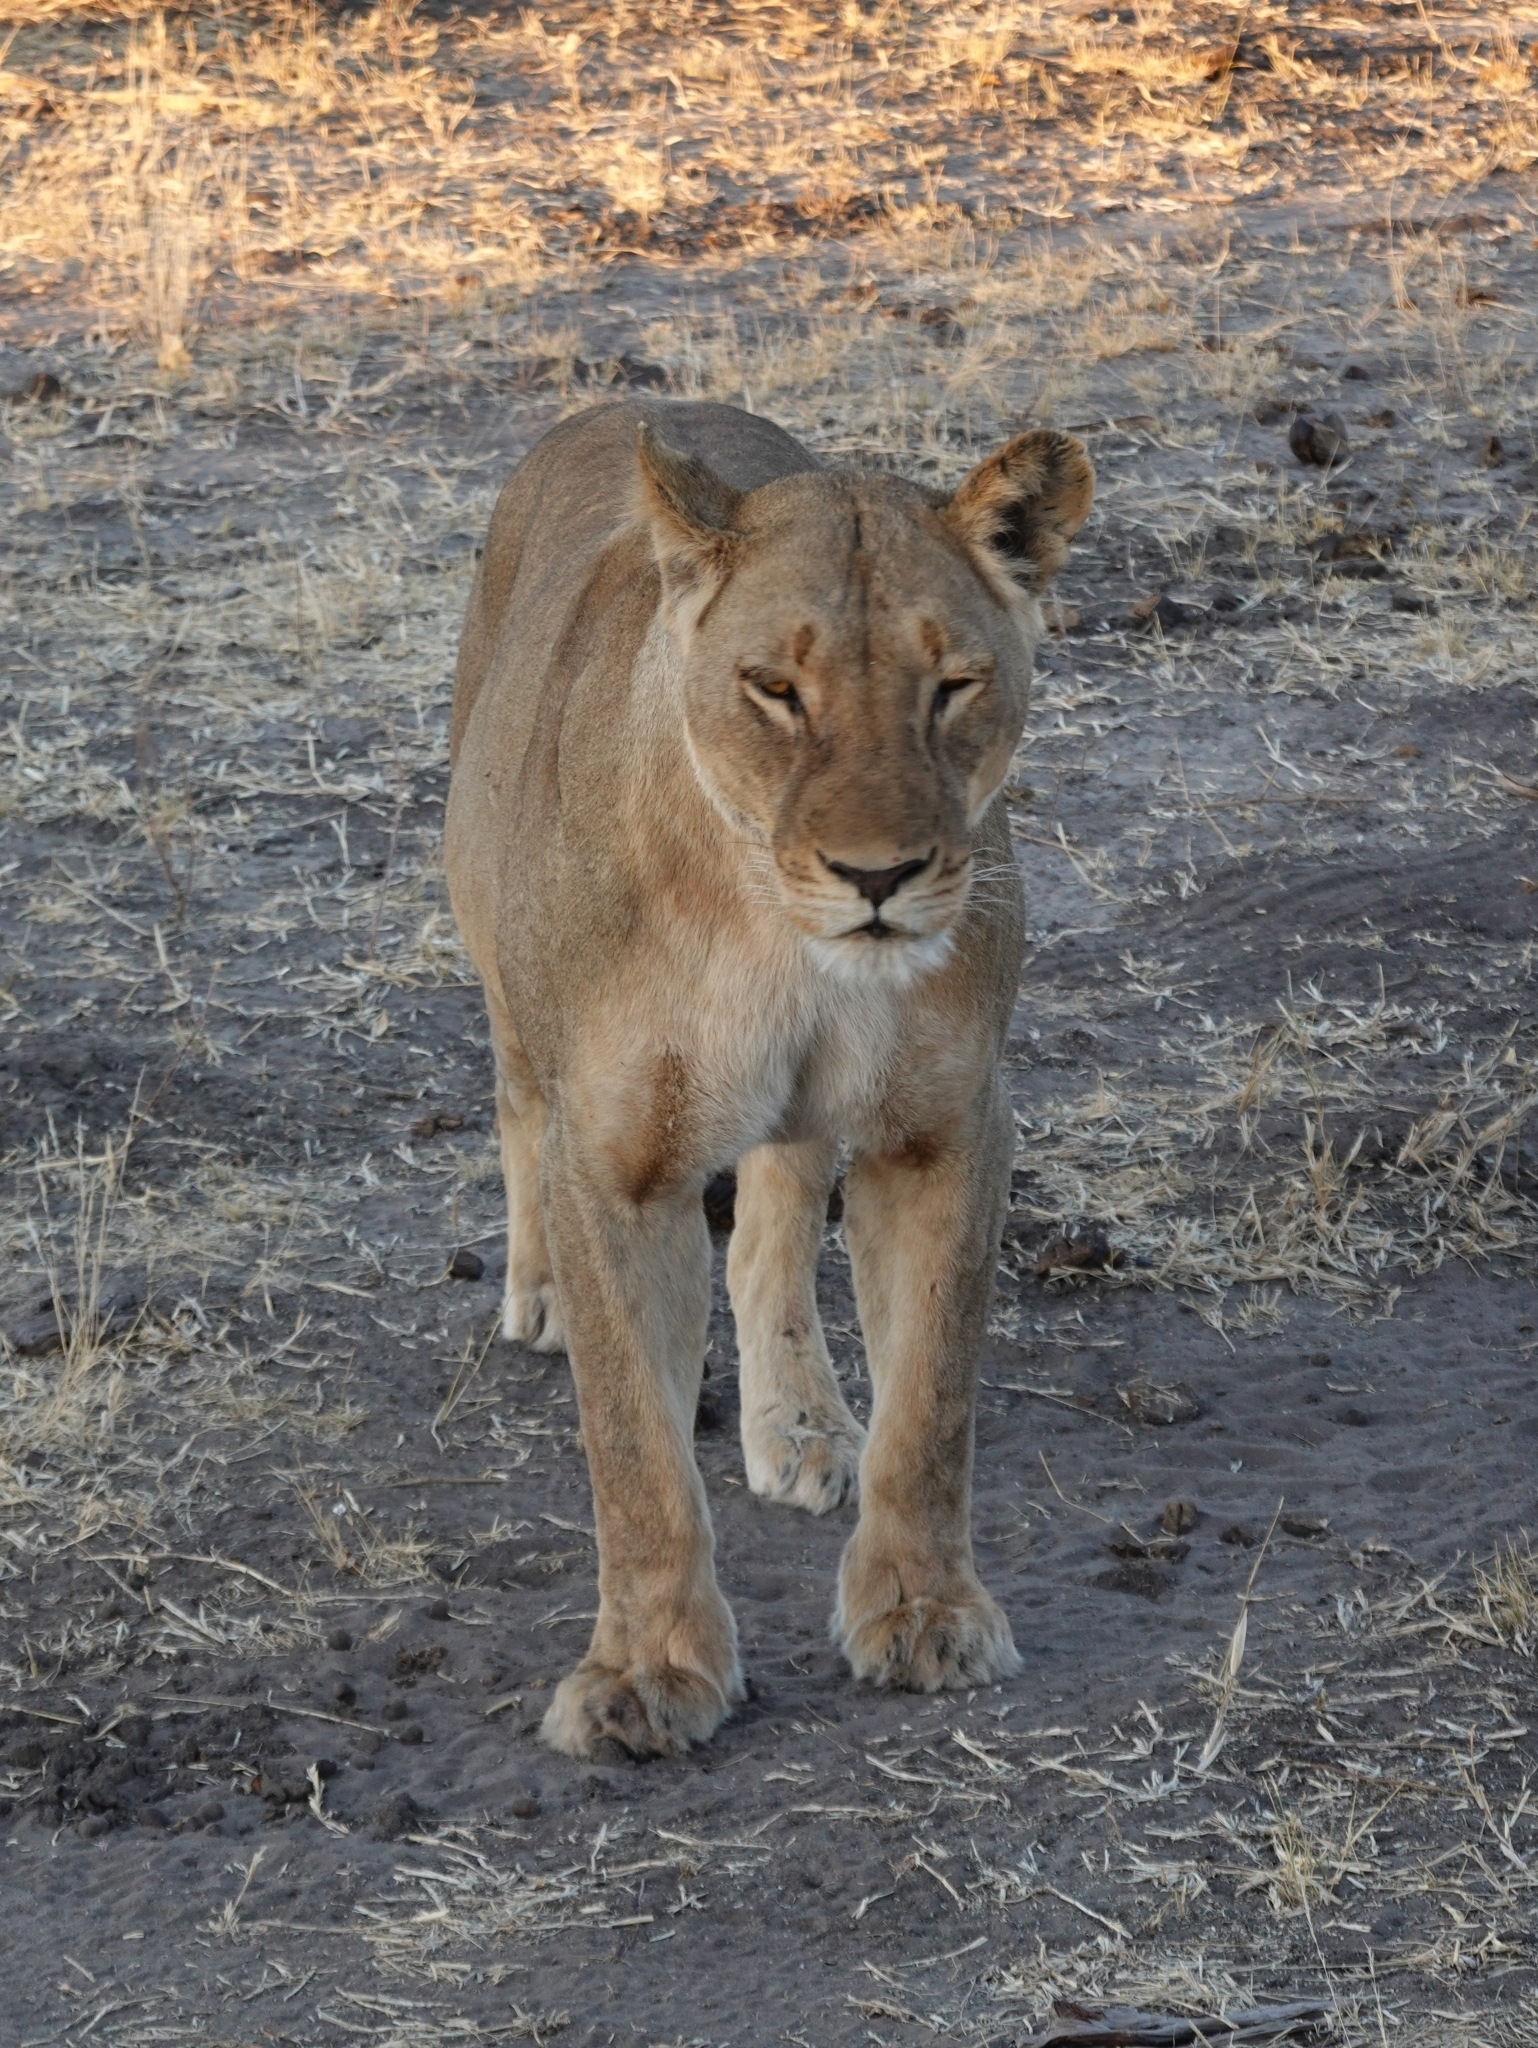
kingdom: Animalia
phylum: Chordata
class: Mammalia
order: Carnivora
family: Felidae
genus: Panthera
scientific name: Panthera leo
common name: Lion
